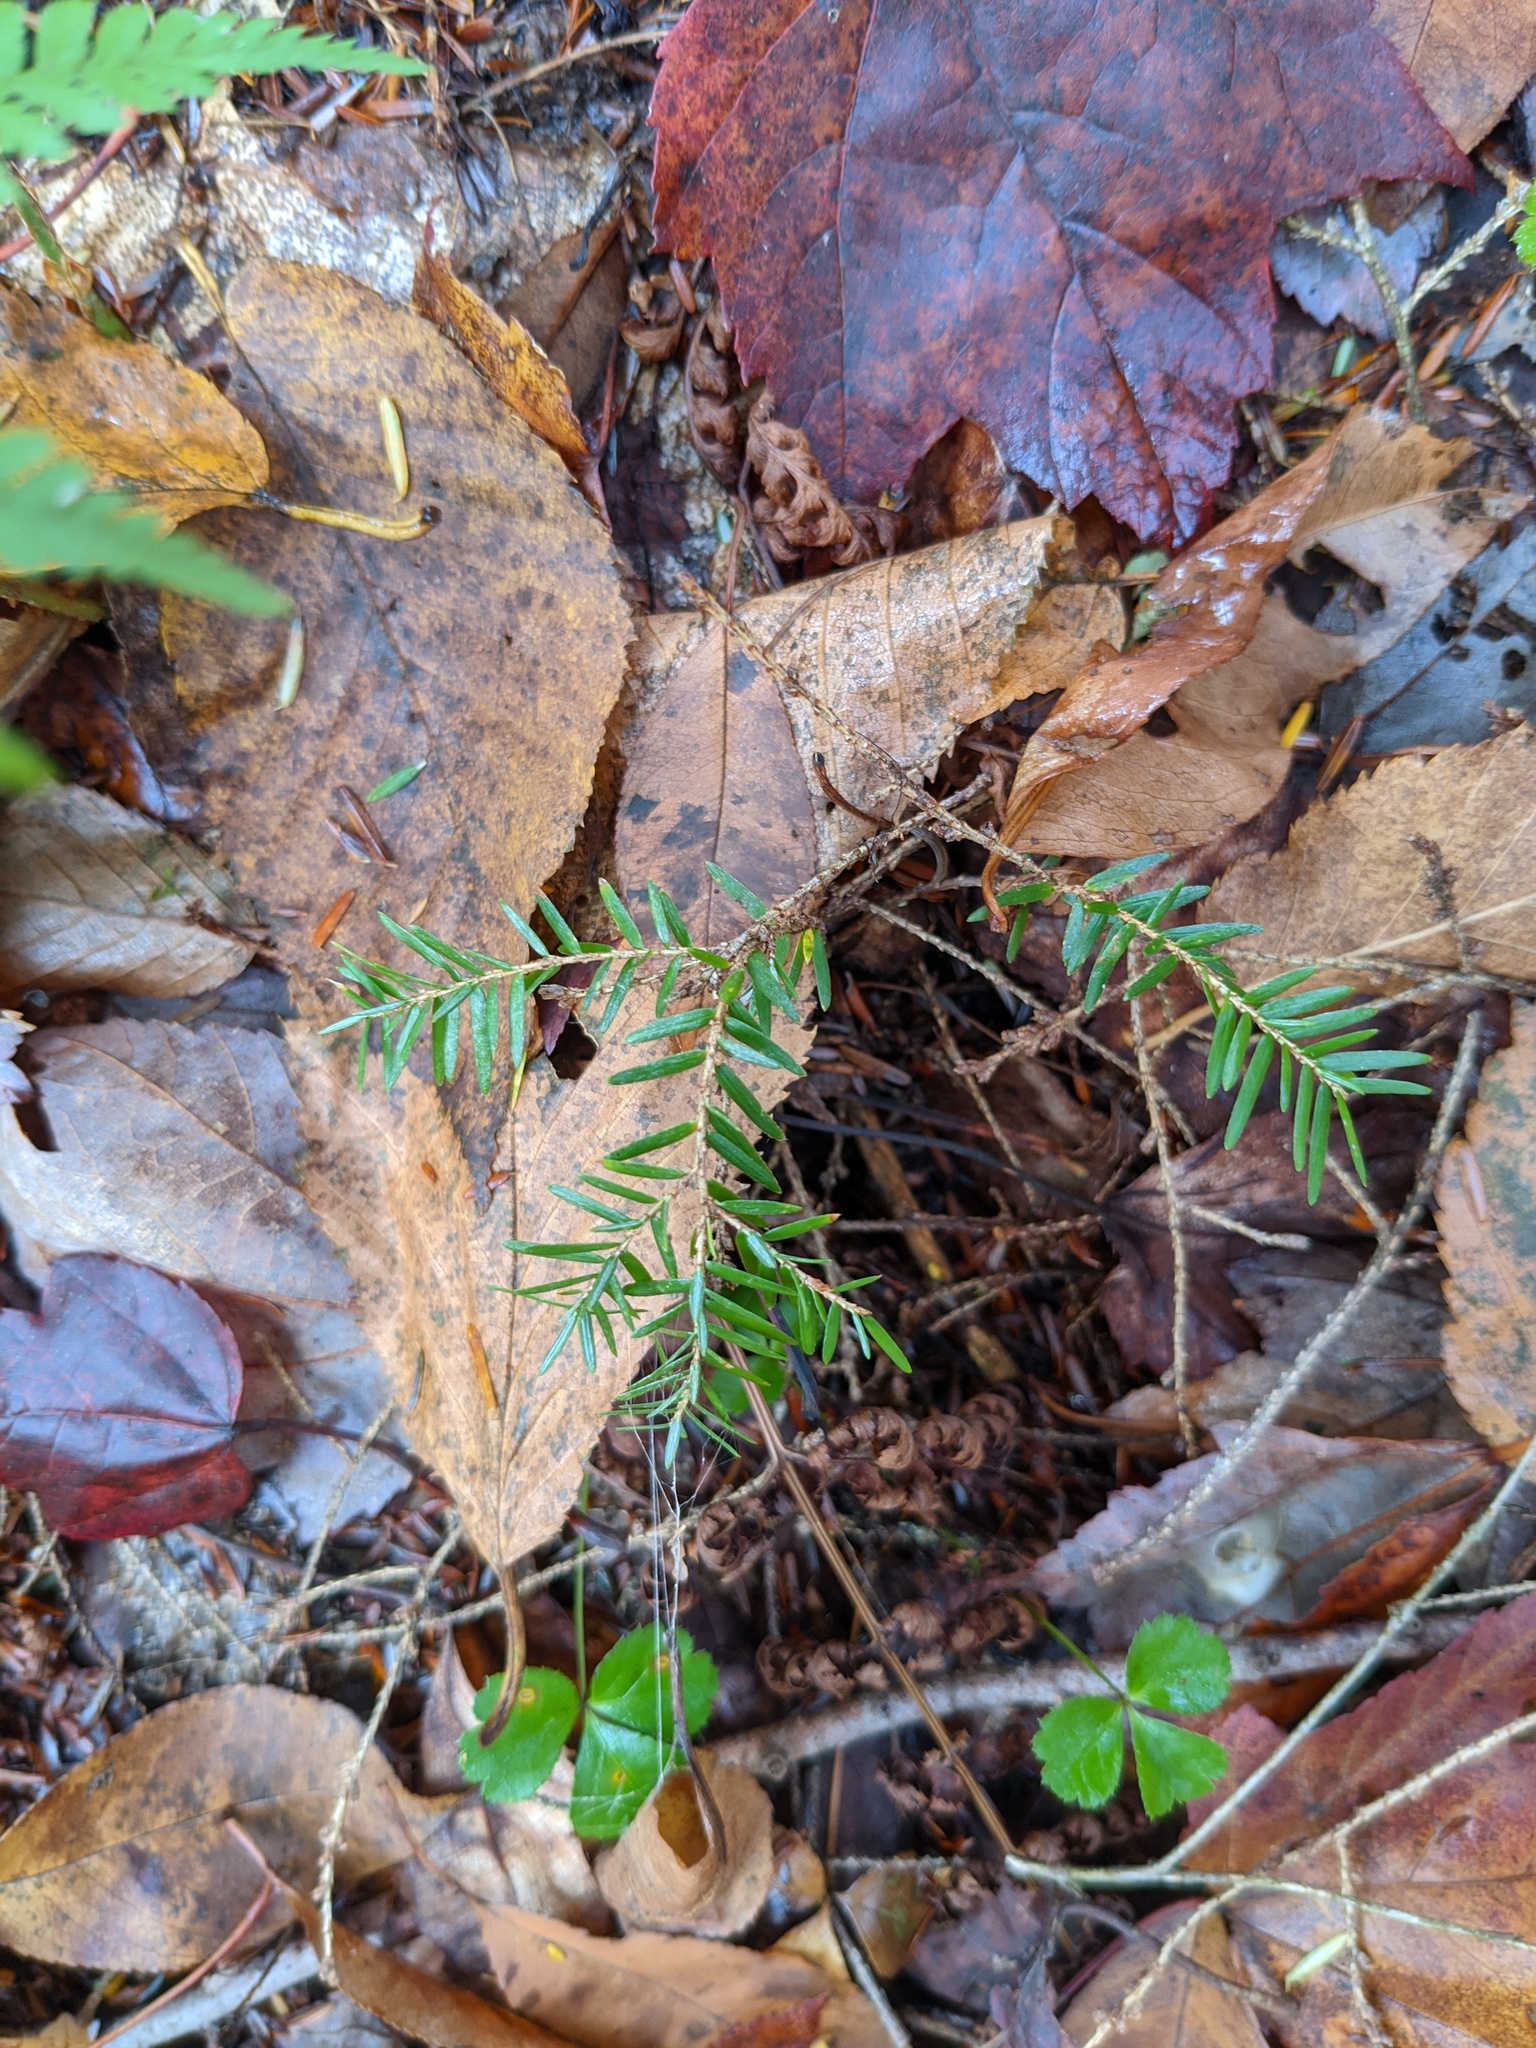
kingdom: Plantae
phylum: Tracheophyta
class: Pinopsida
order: Pinales
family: Pinaceae
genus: Tsuga
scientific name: Tsuga canadensis
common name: Eastern hemlock
